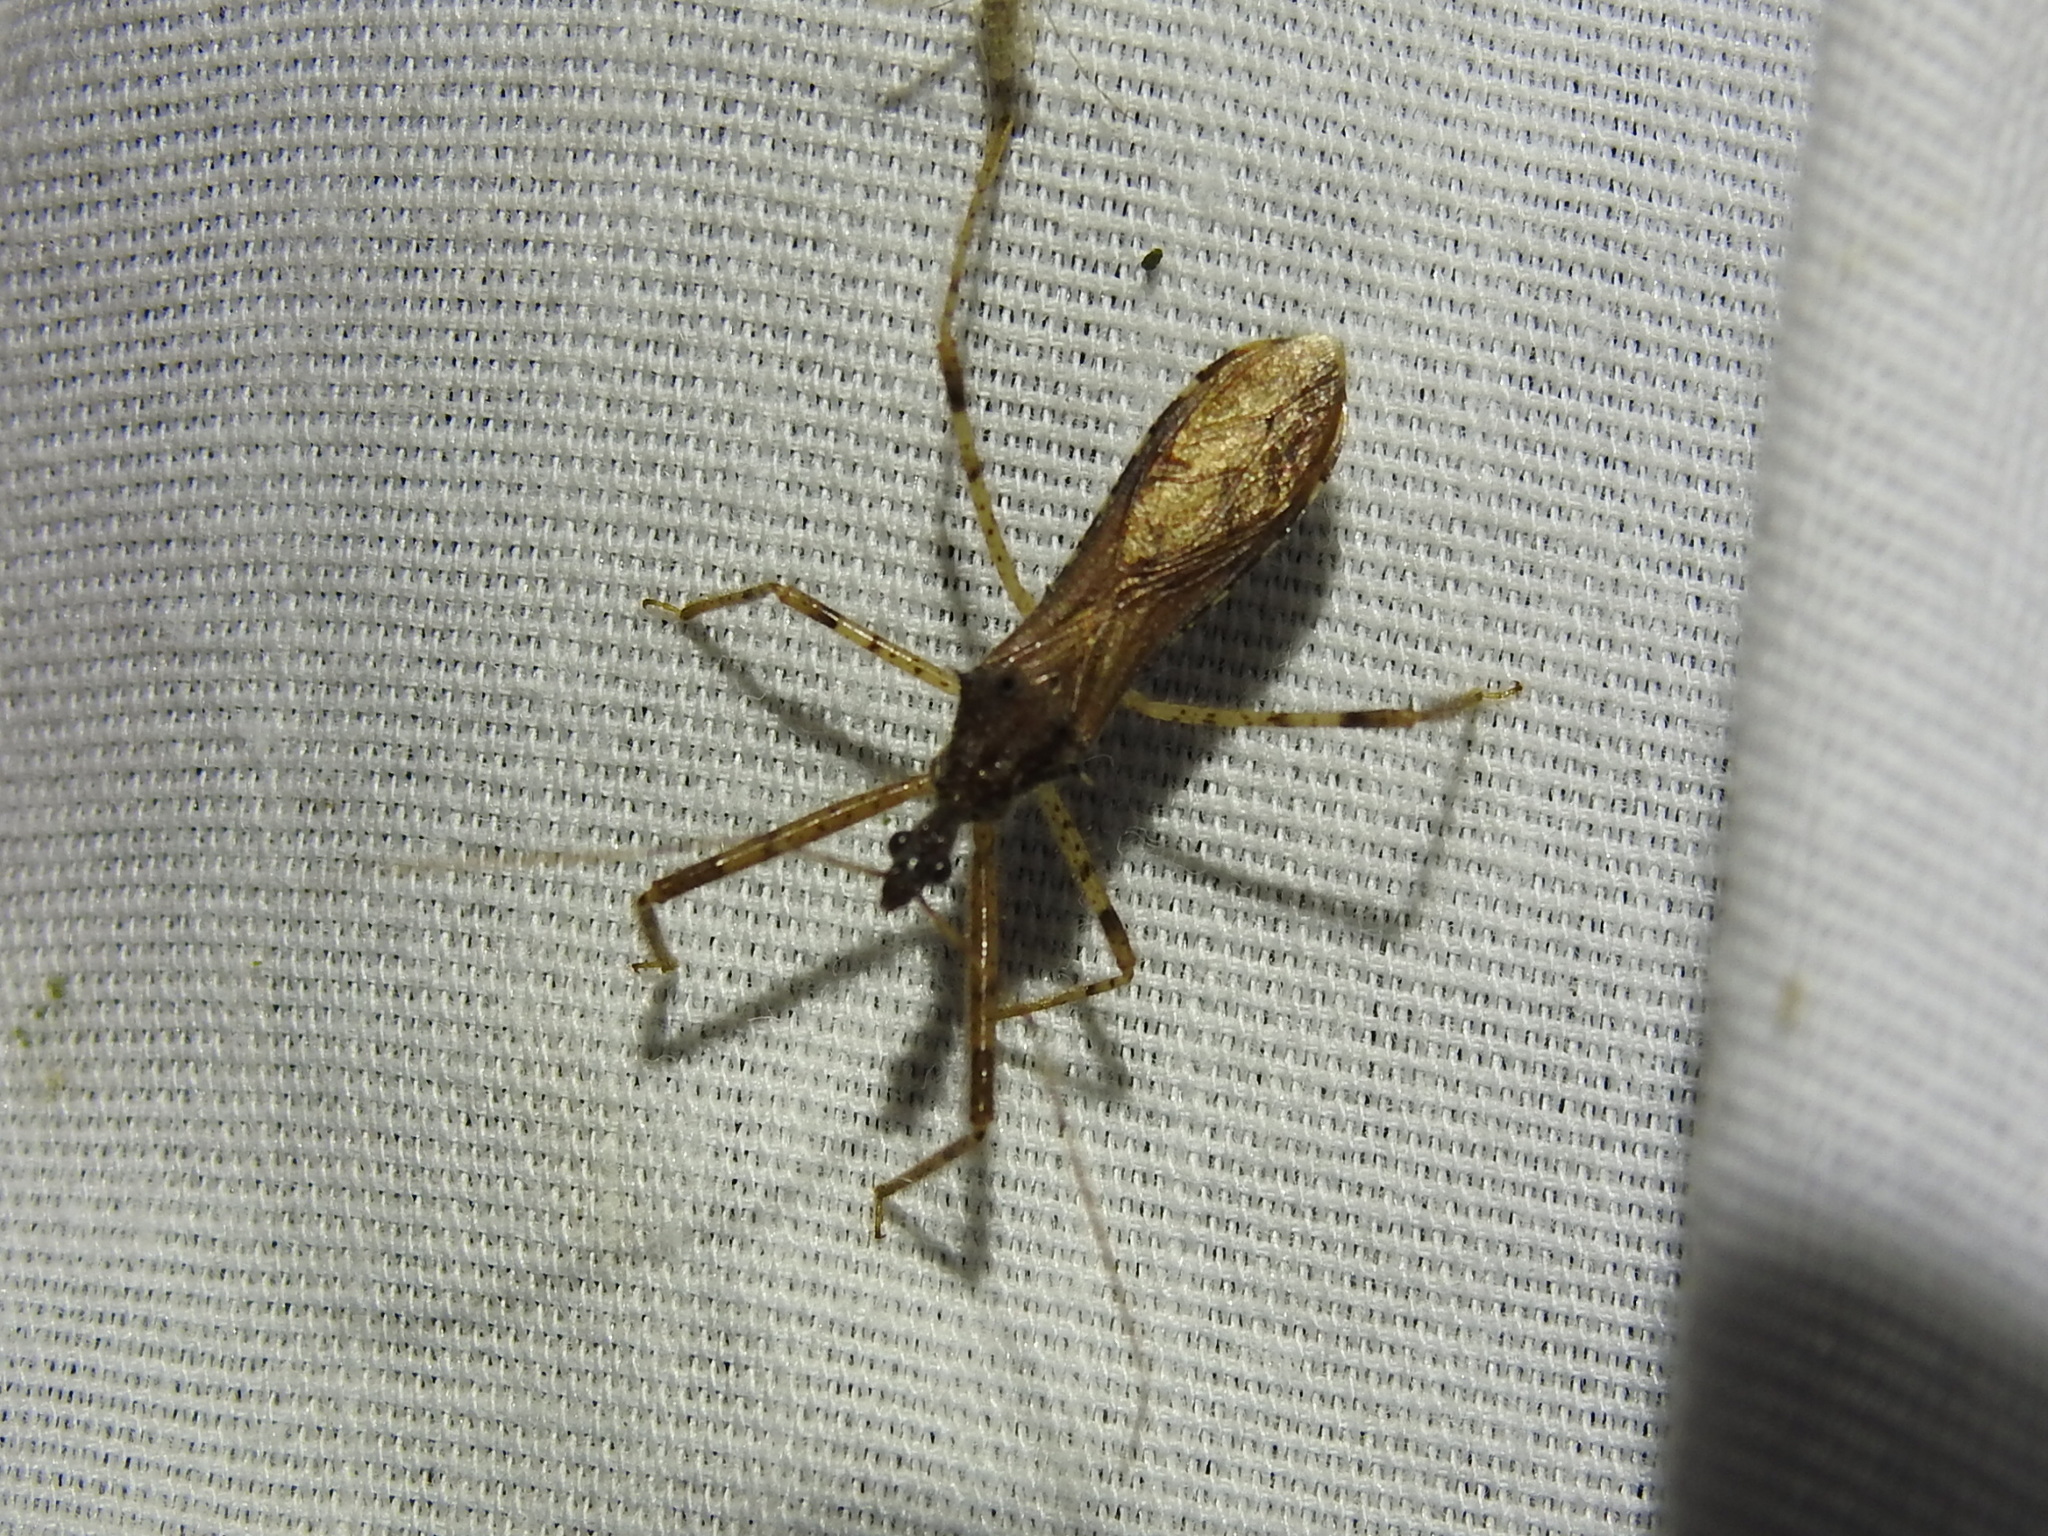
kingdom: Animalia
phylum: Arthropoda
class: Insecta
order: Hemiptera
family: Reduviidae
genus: Rocconota
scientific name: Rocconota annulicornis
